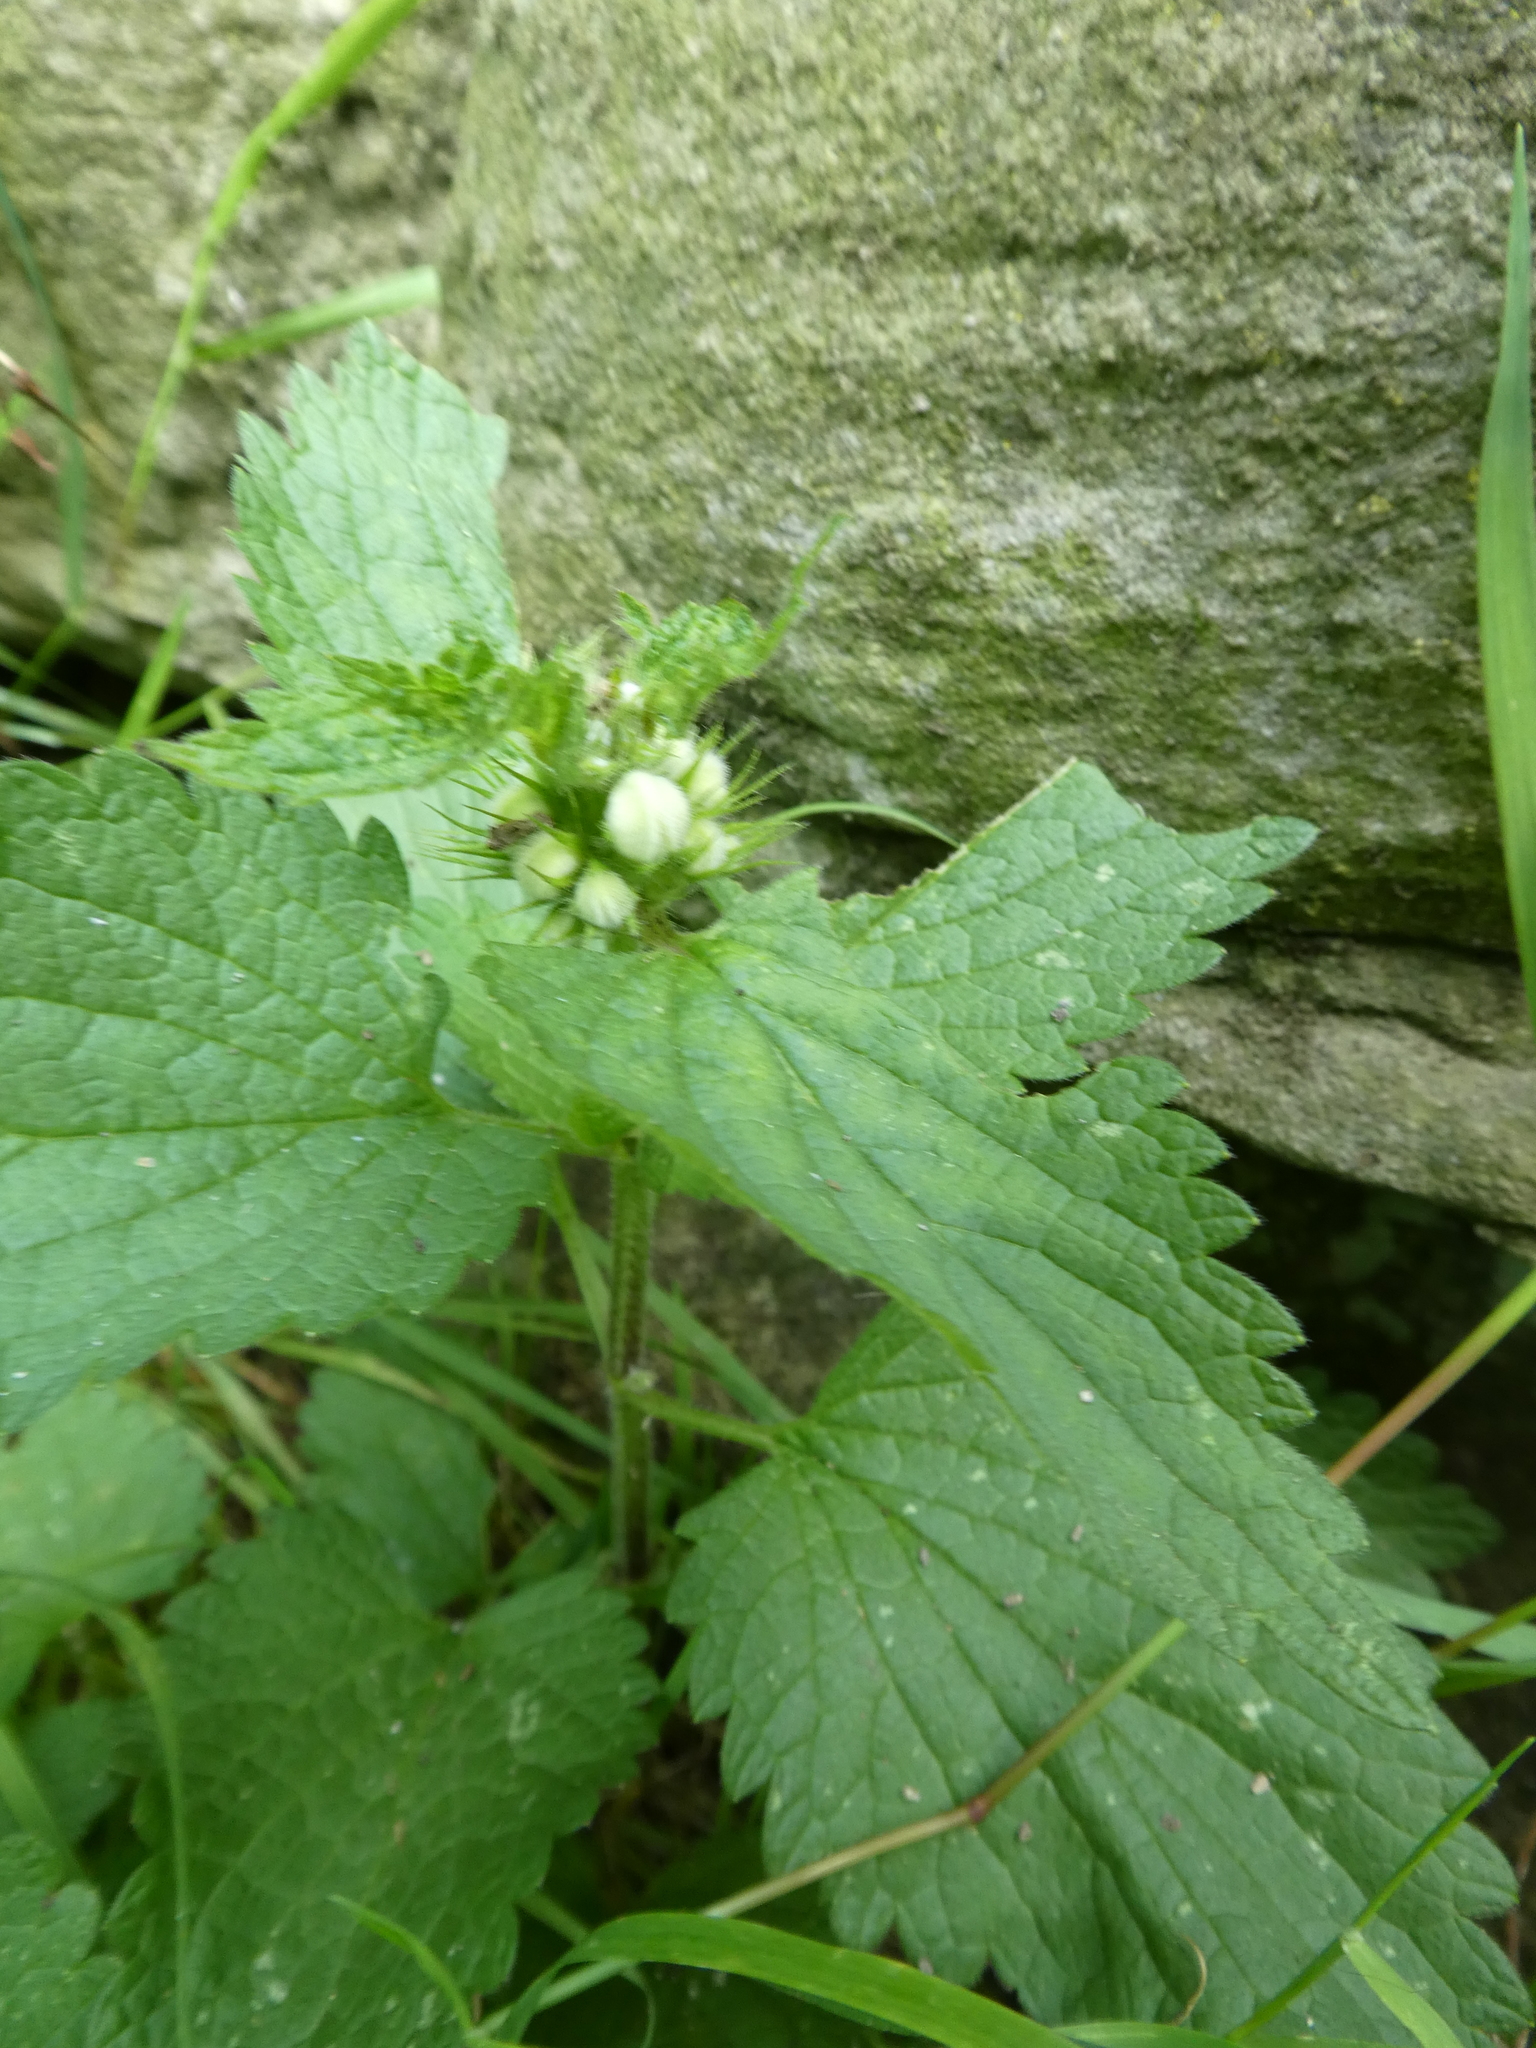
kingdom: Plantae
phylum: Tracheophyta
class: Magnoliopsida
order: Lamiales
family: Lamiaceae
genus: Lamium
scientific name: Lamium album
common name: White dead-nettle
